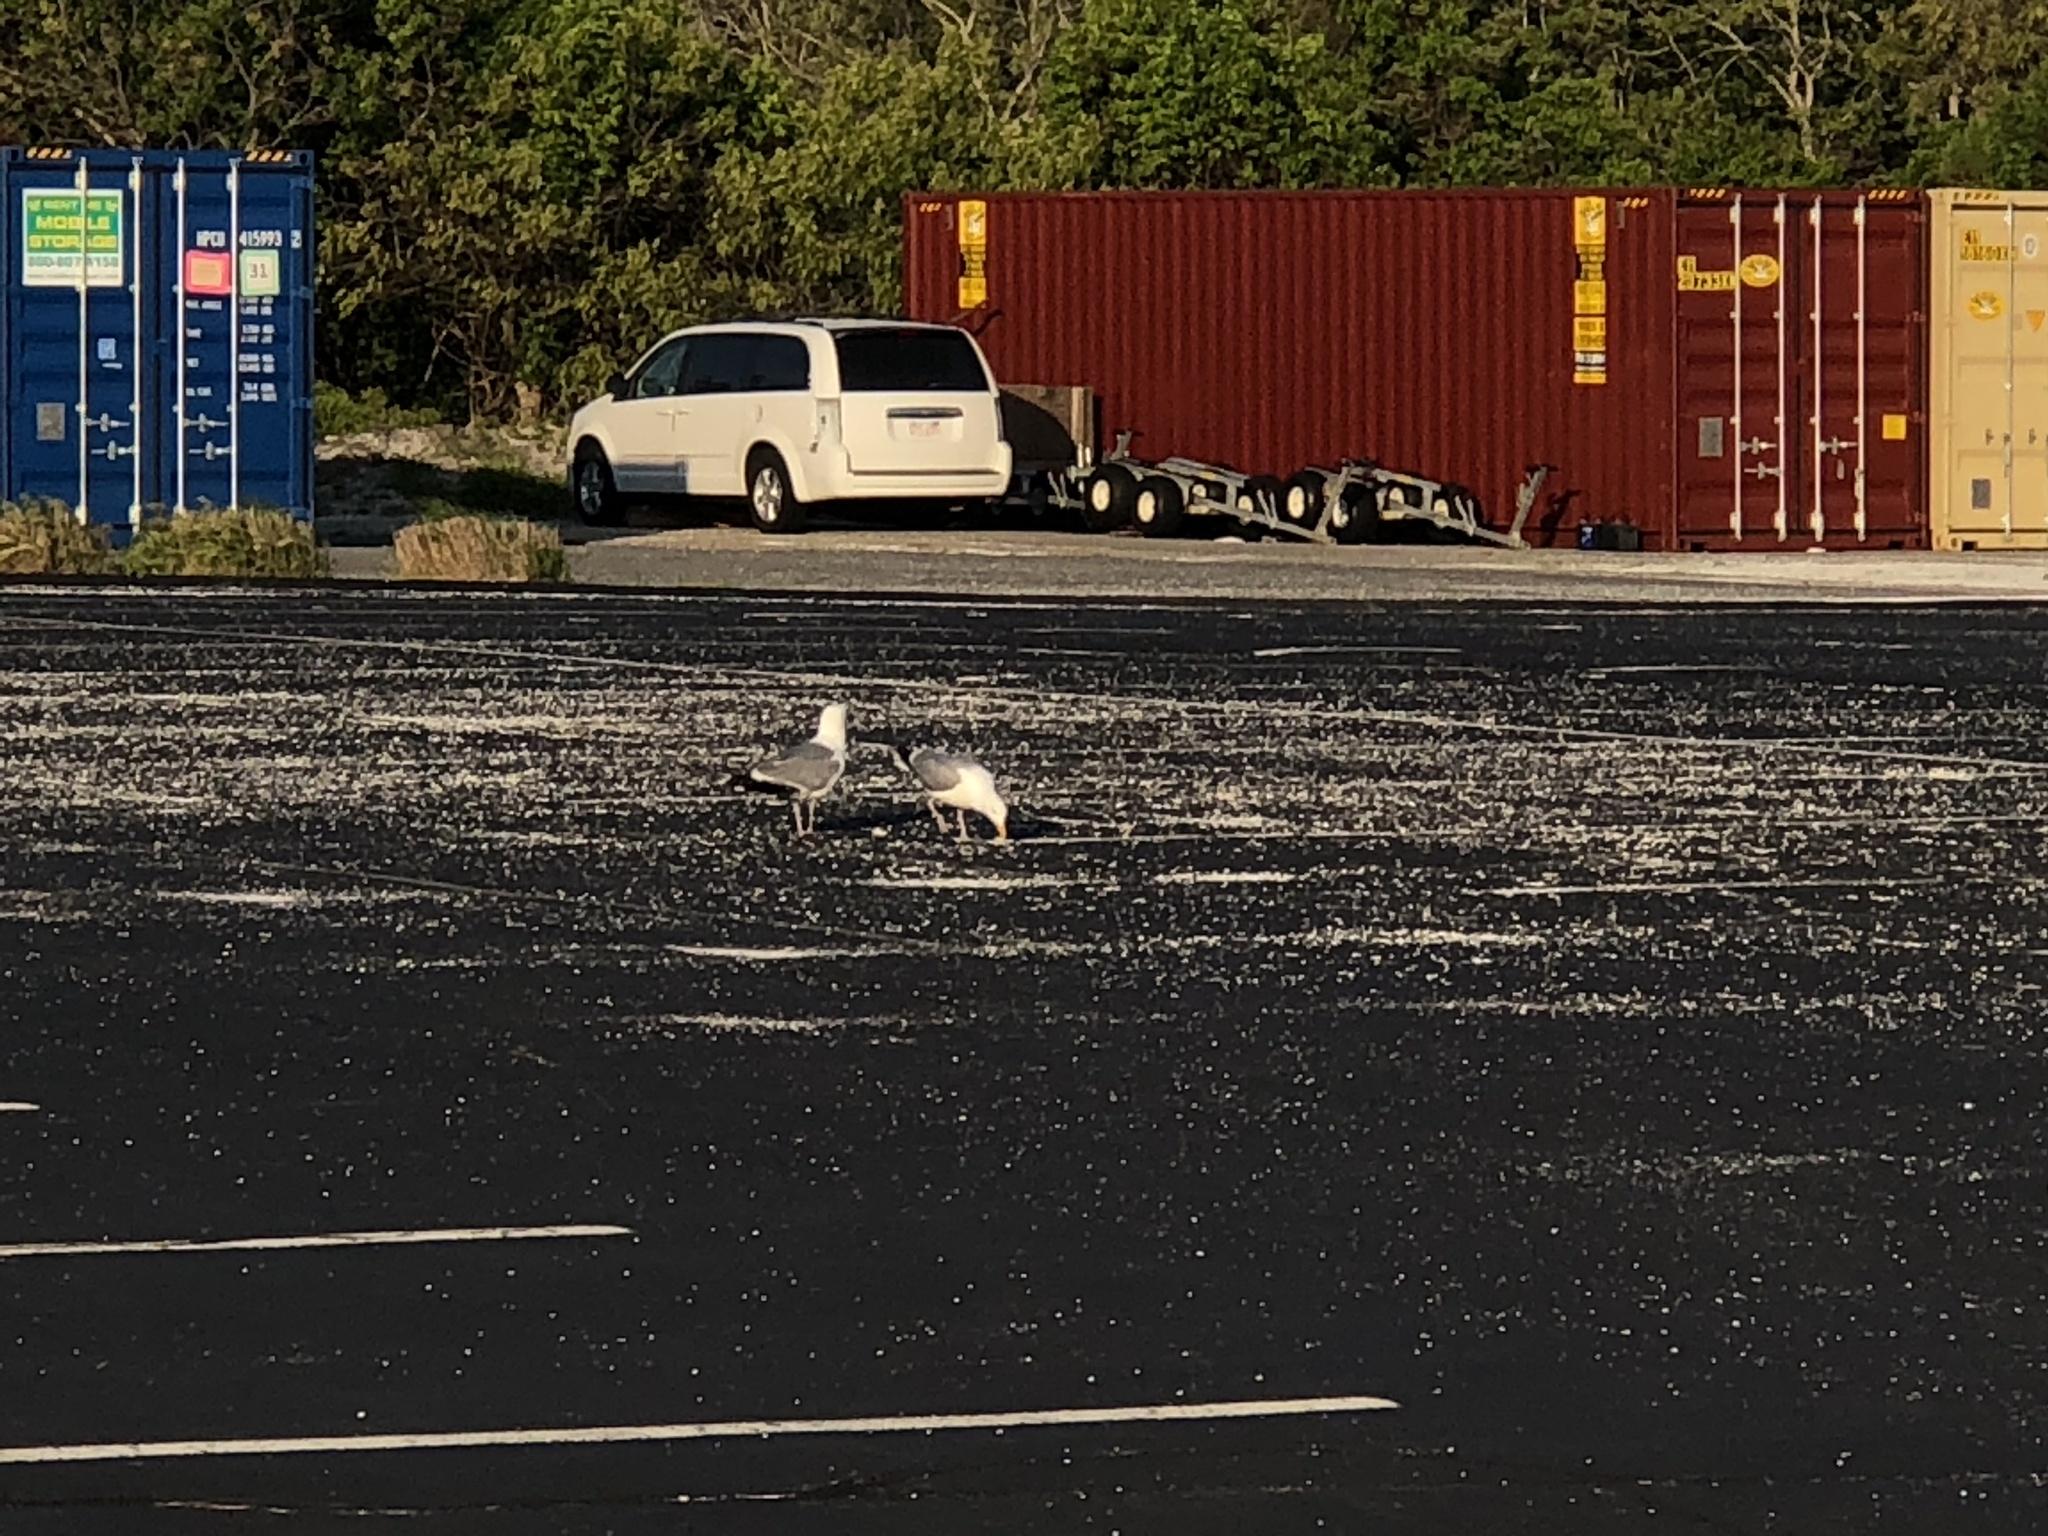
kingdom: Animalia
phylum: Chordata
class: Aves
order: Charadriiformes
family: Laridae
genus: Larus
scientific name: Larus argentatus
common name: Herring gull
